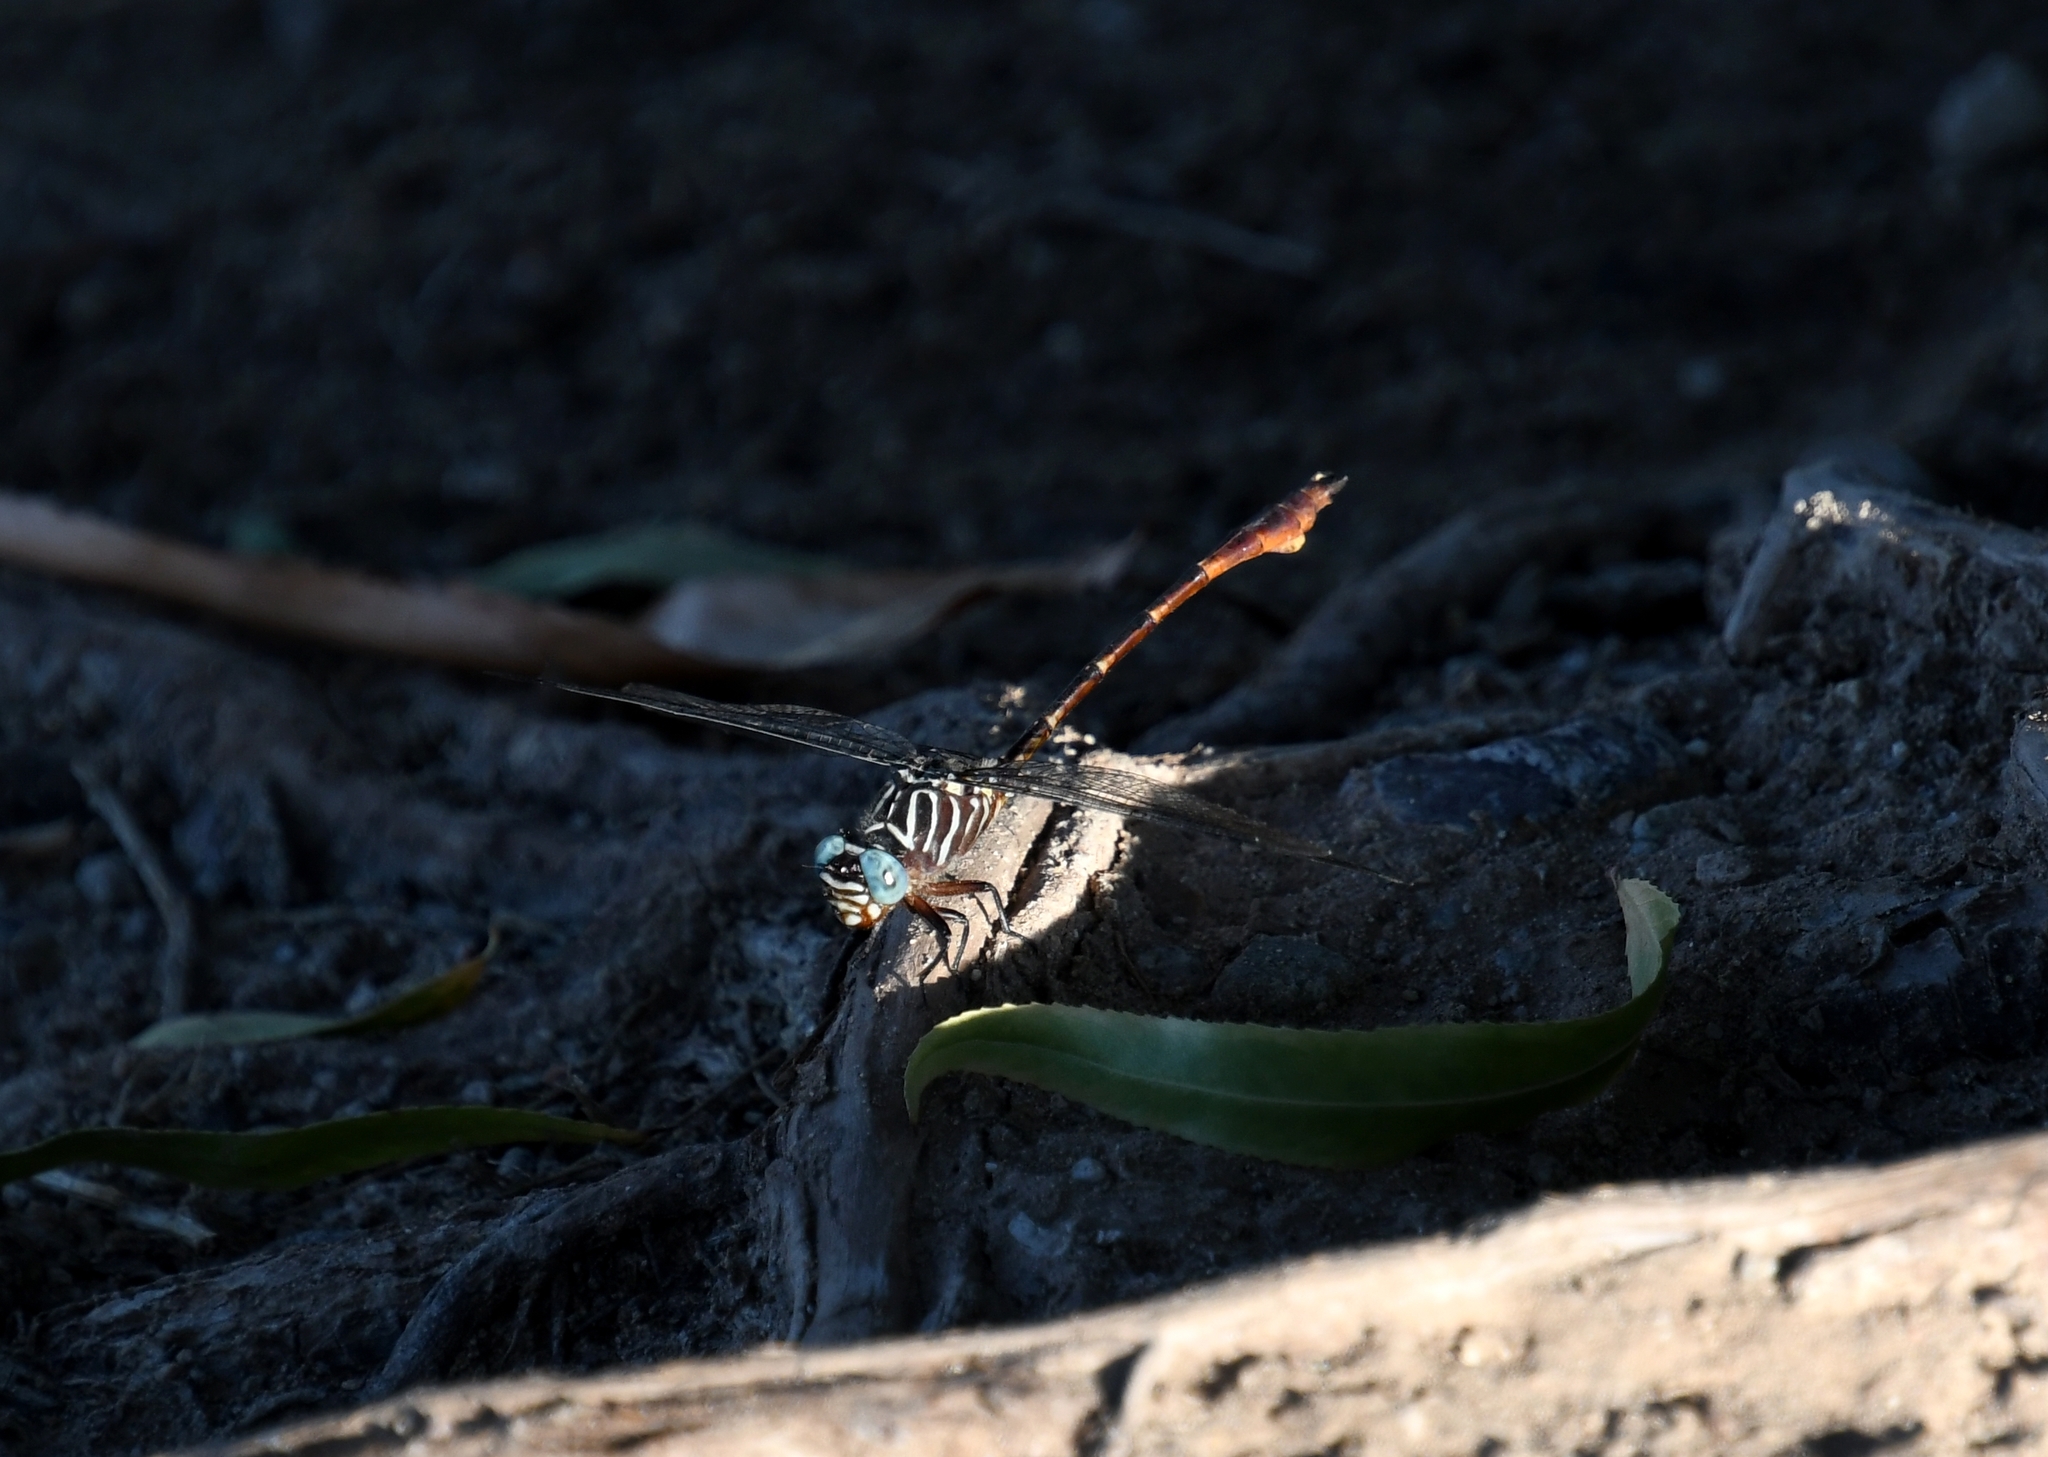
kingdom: Animalia
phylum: Arthropoda
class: Insecta
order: Odonata
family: Gomphidae
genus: Aphylla
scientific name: Aphylla protracta
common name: Narrow-striped forceptail
